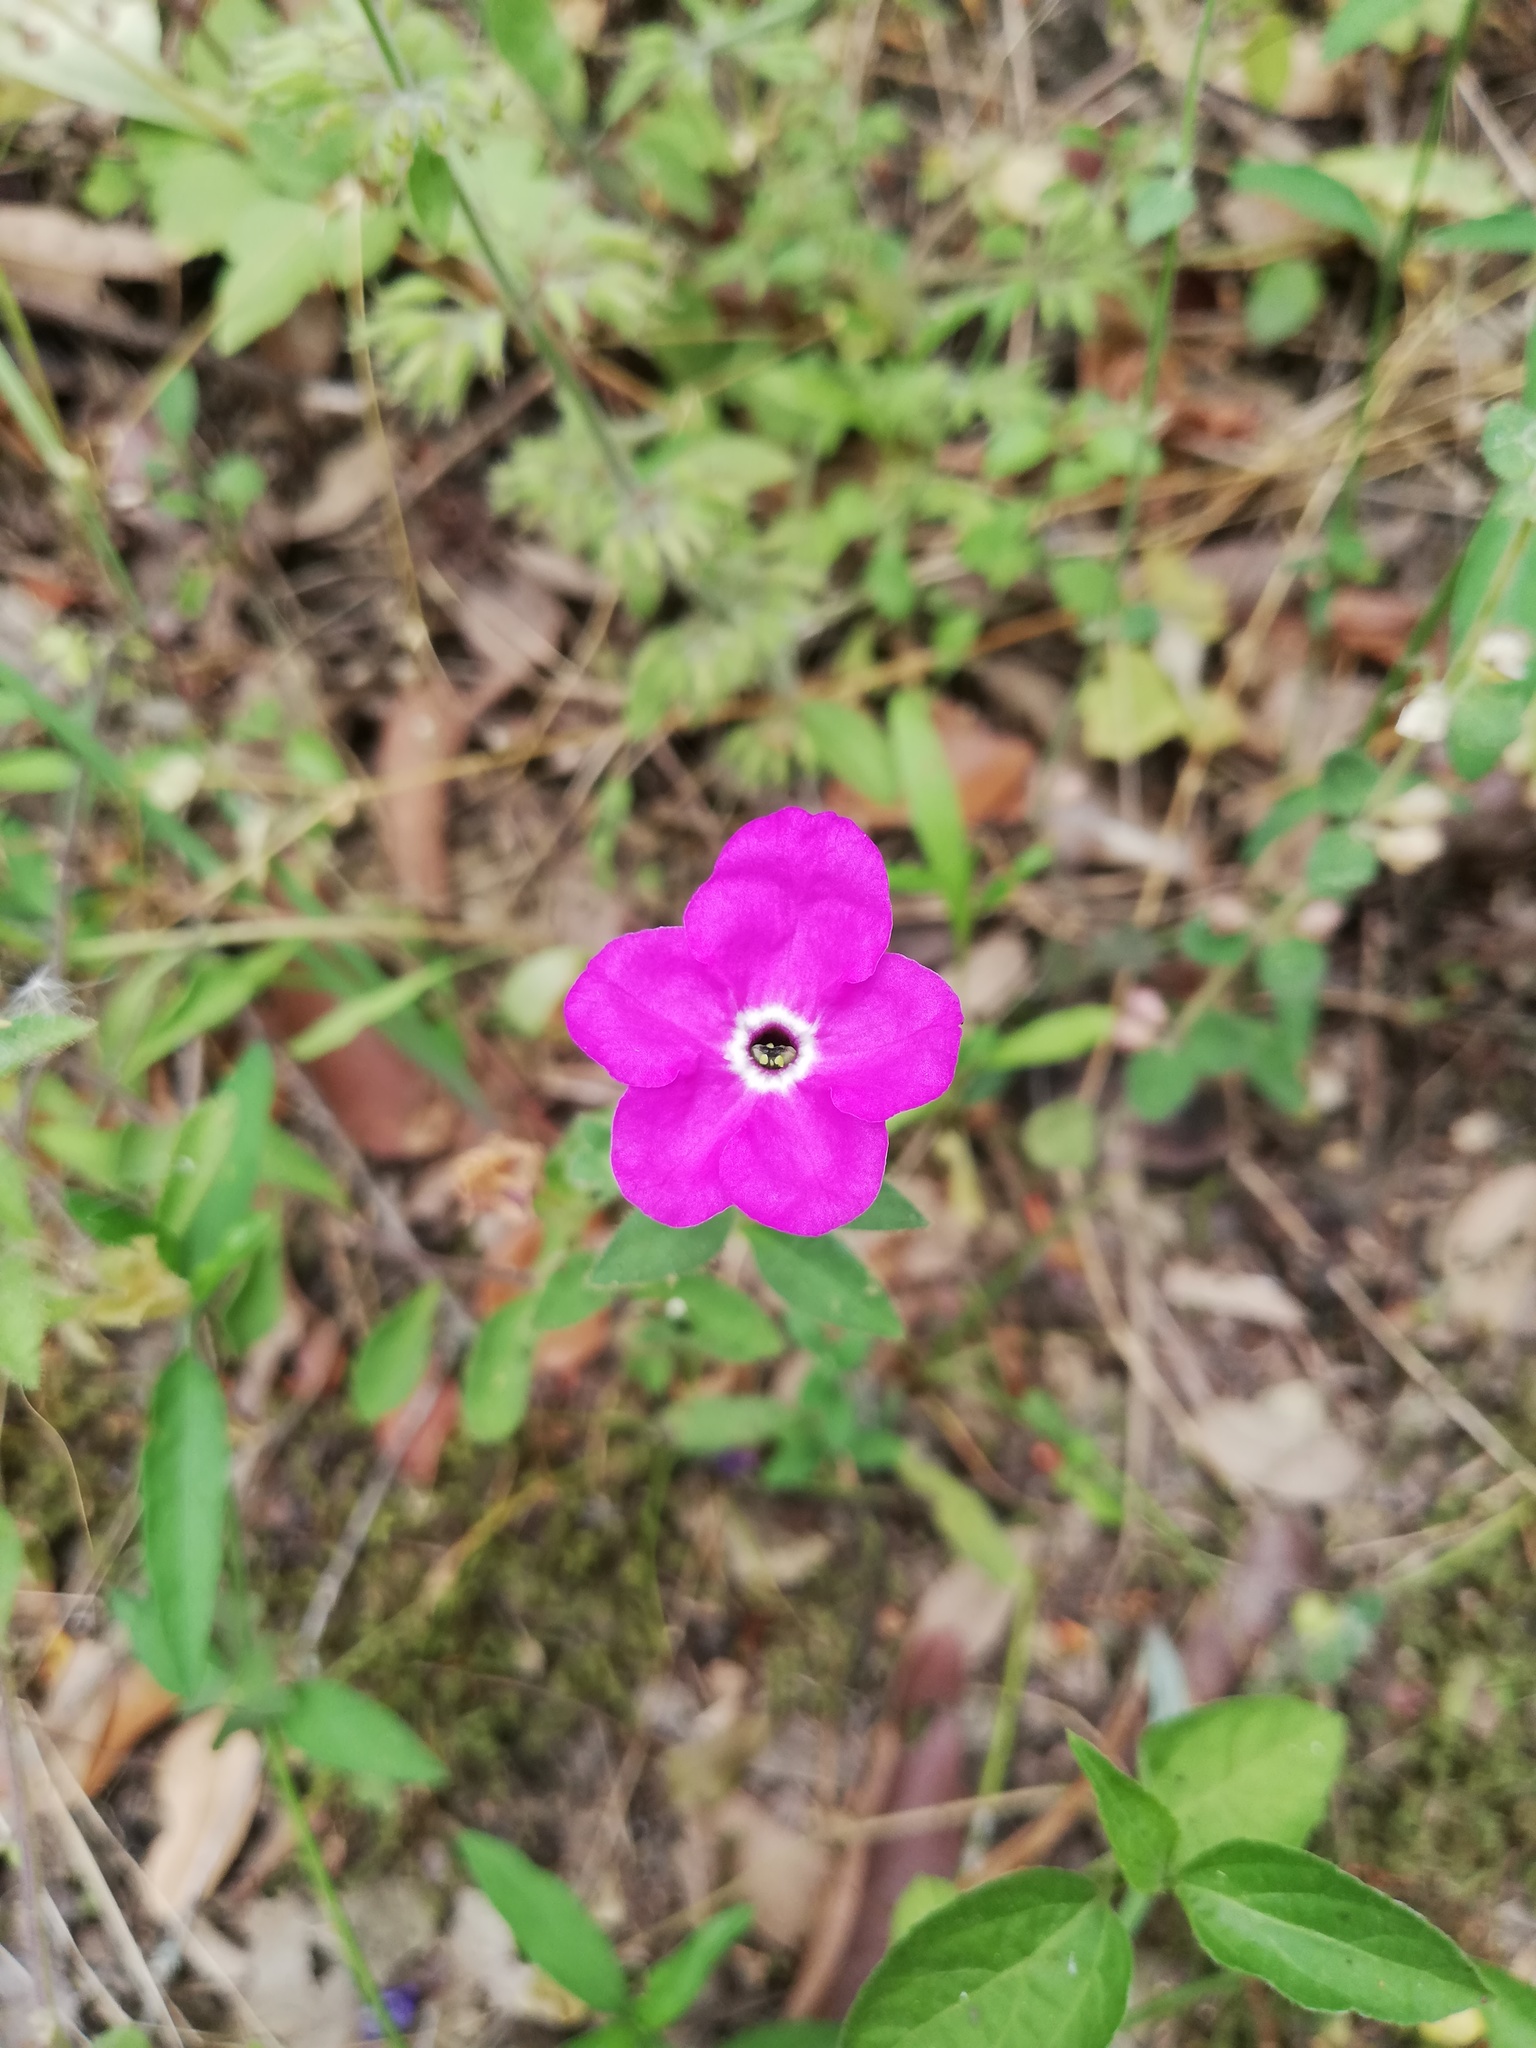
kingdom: Plantae
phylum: Tracheophyta
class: Magnoliopsida
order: Solanales
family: Solanaceae
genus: Hunzikeria
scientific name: Hunzikeria texana
